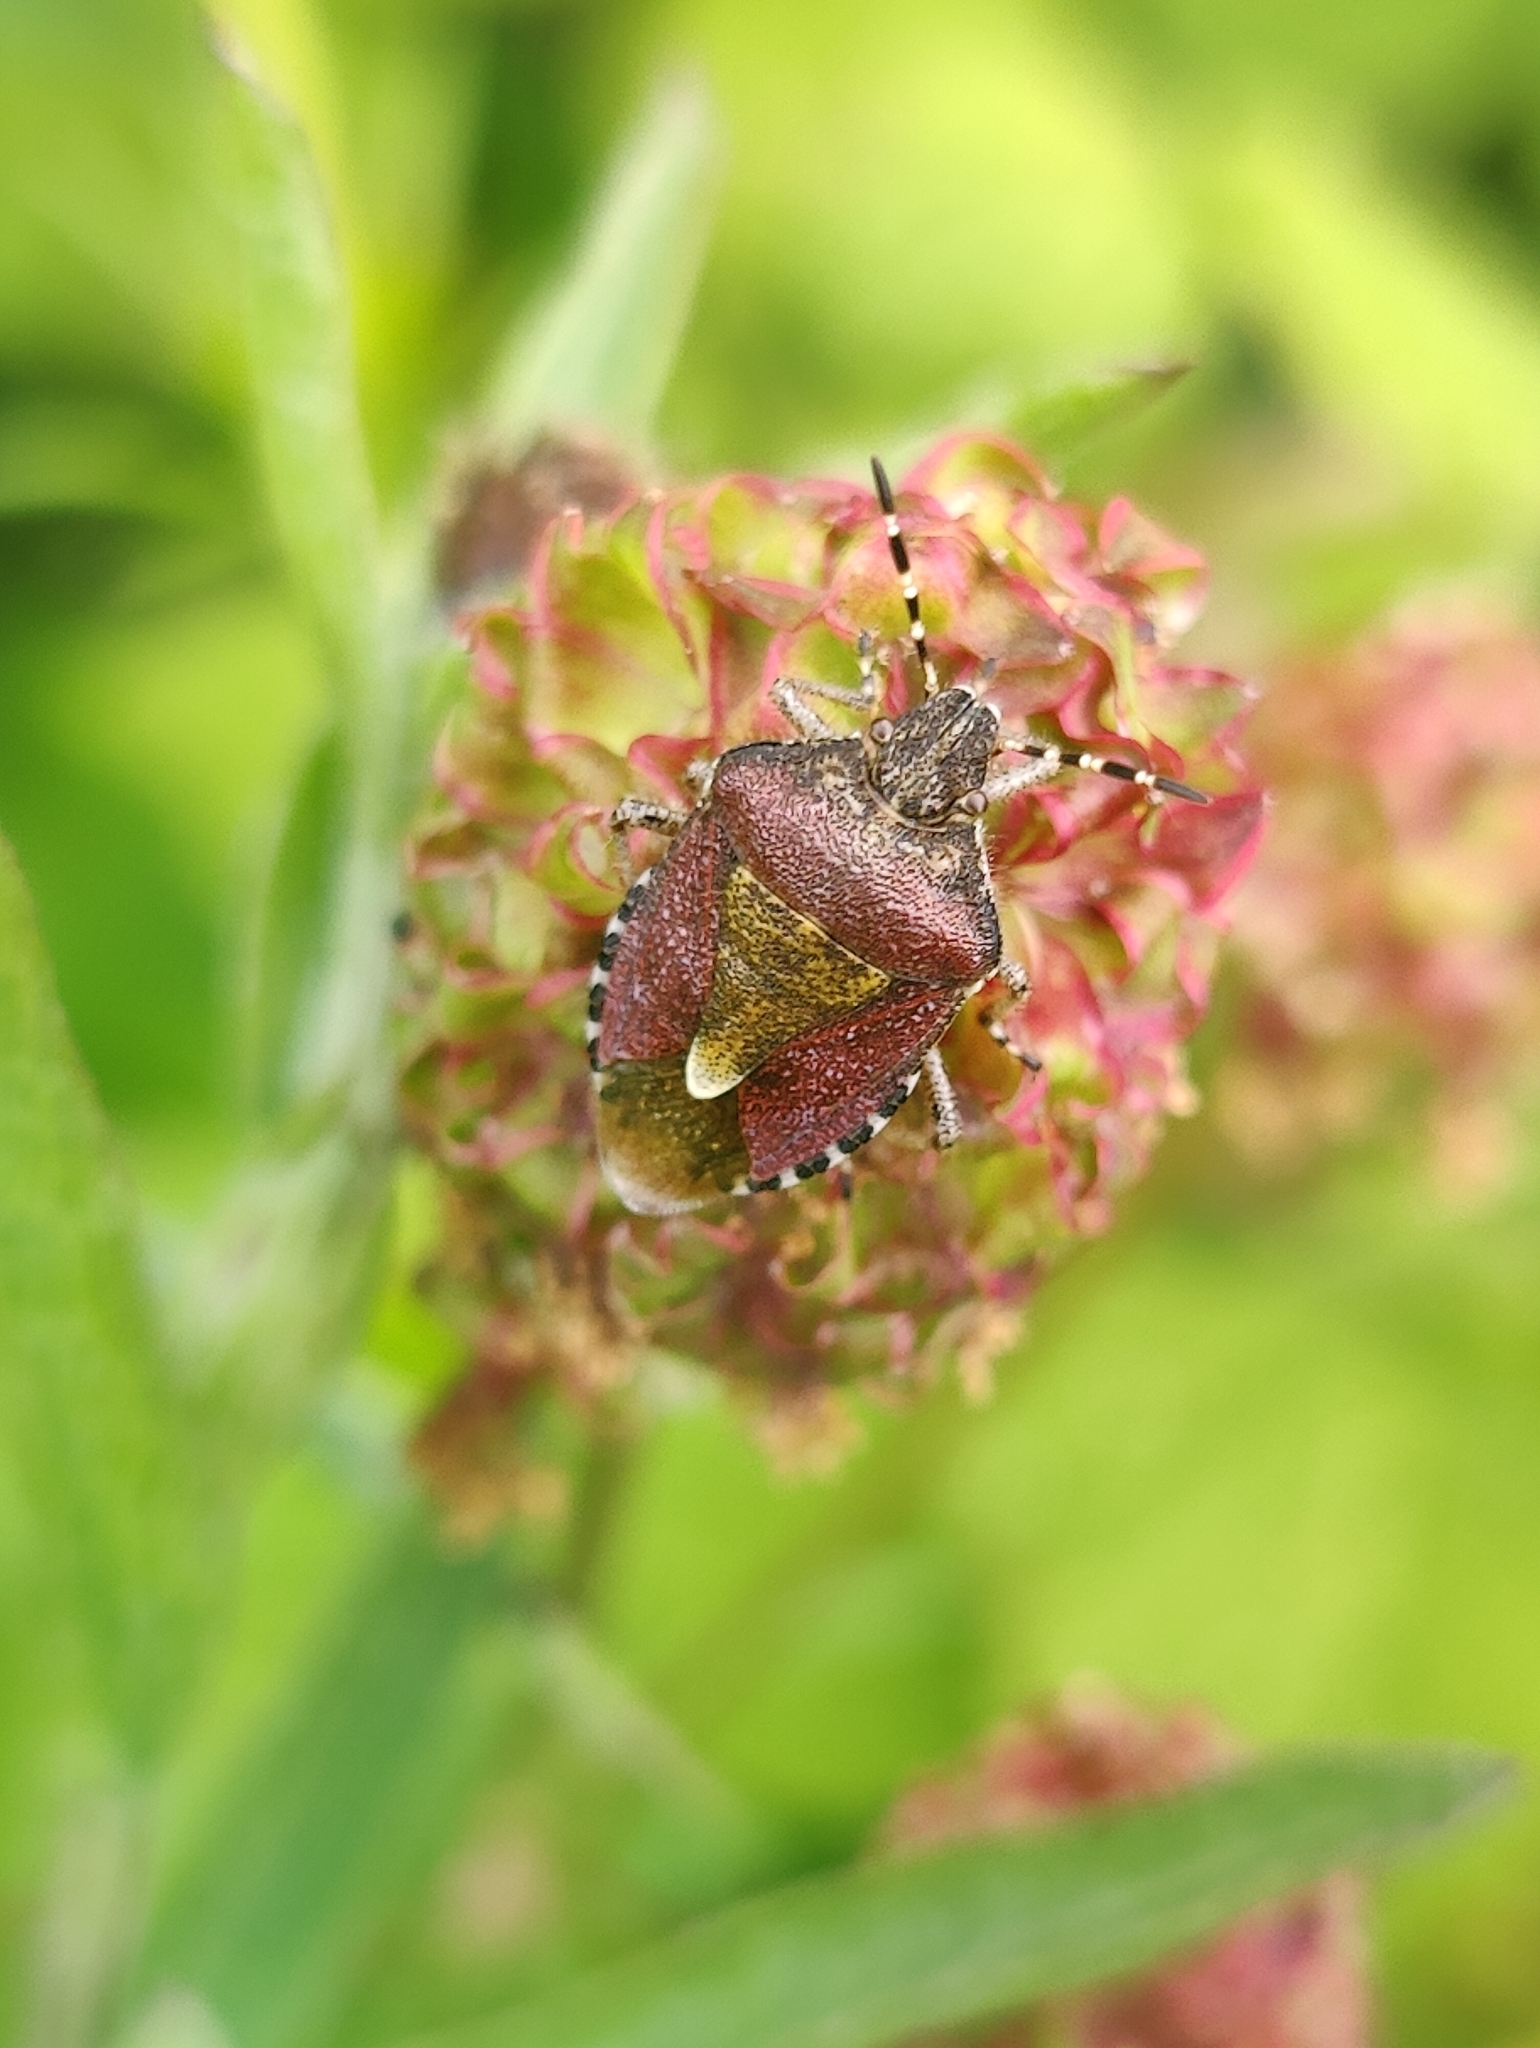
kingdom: Animalia
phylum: Arthropoda
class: Insecta
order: Hemiptera
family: Pentatomidae
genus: Dolycoris
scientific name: Dolycoris baccarum
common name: Sloe bug
